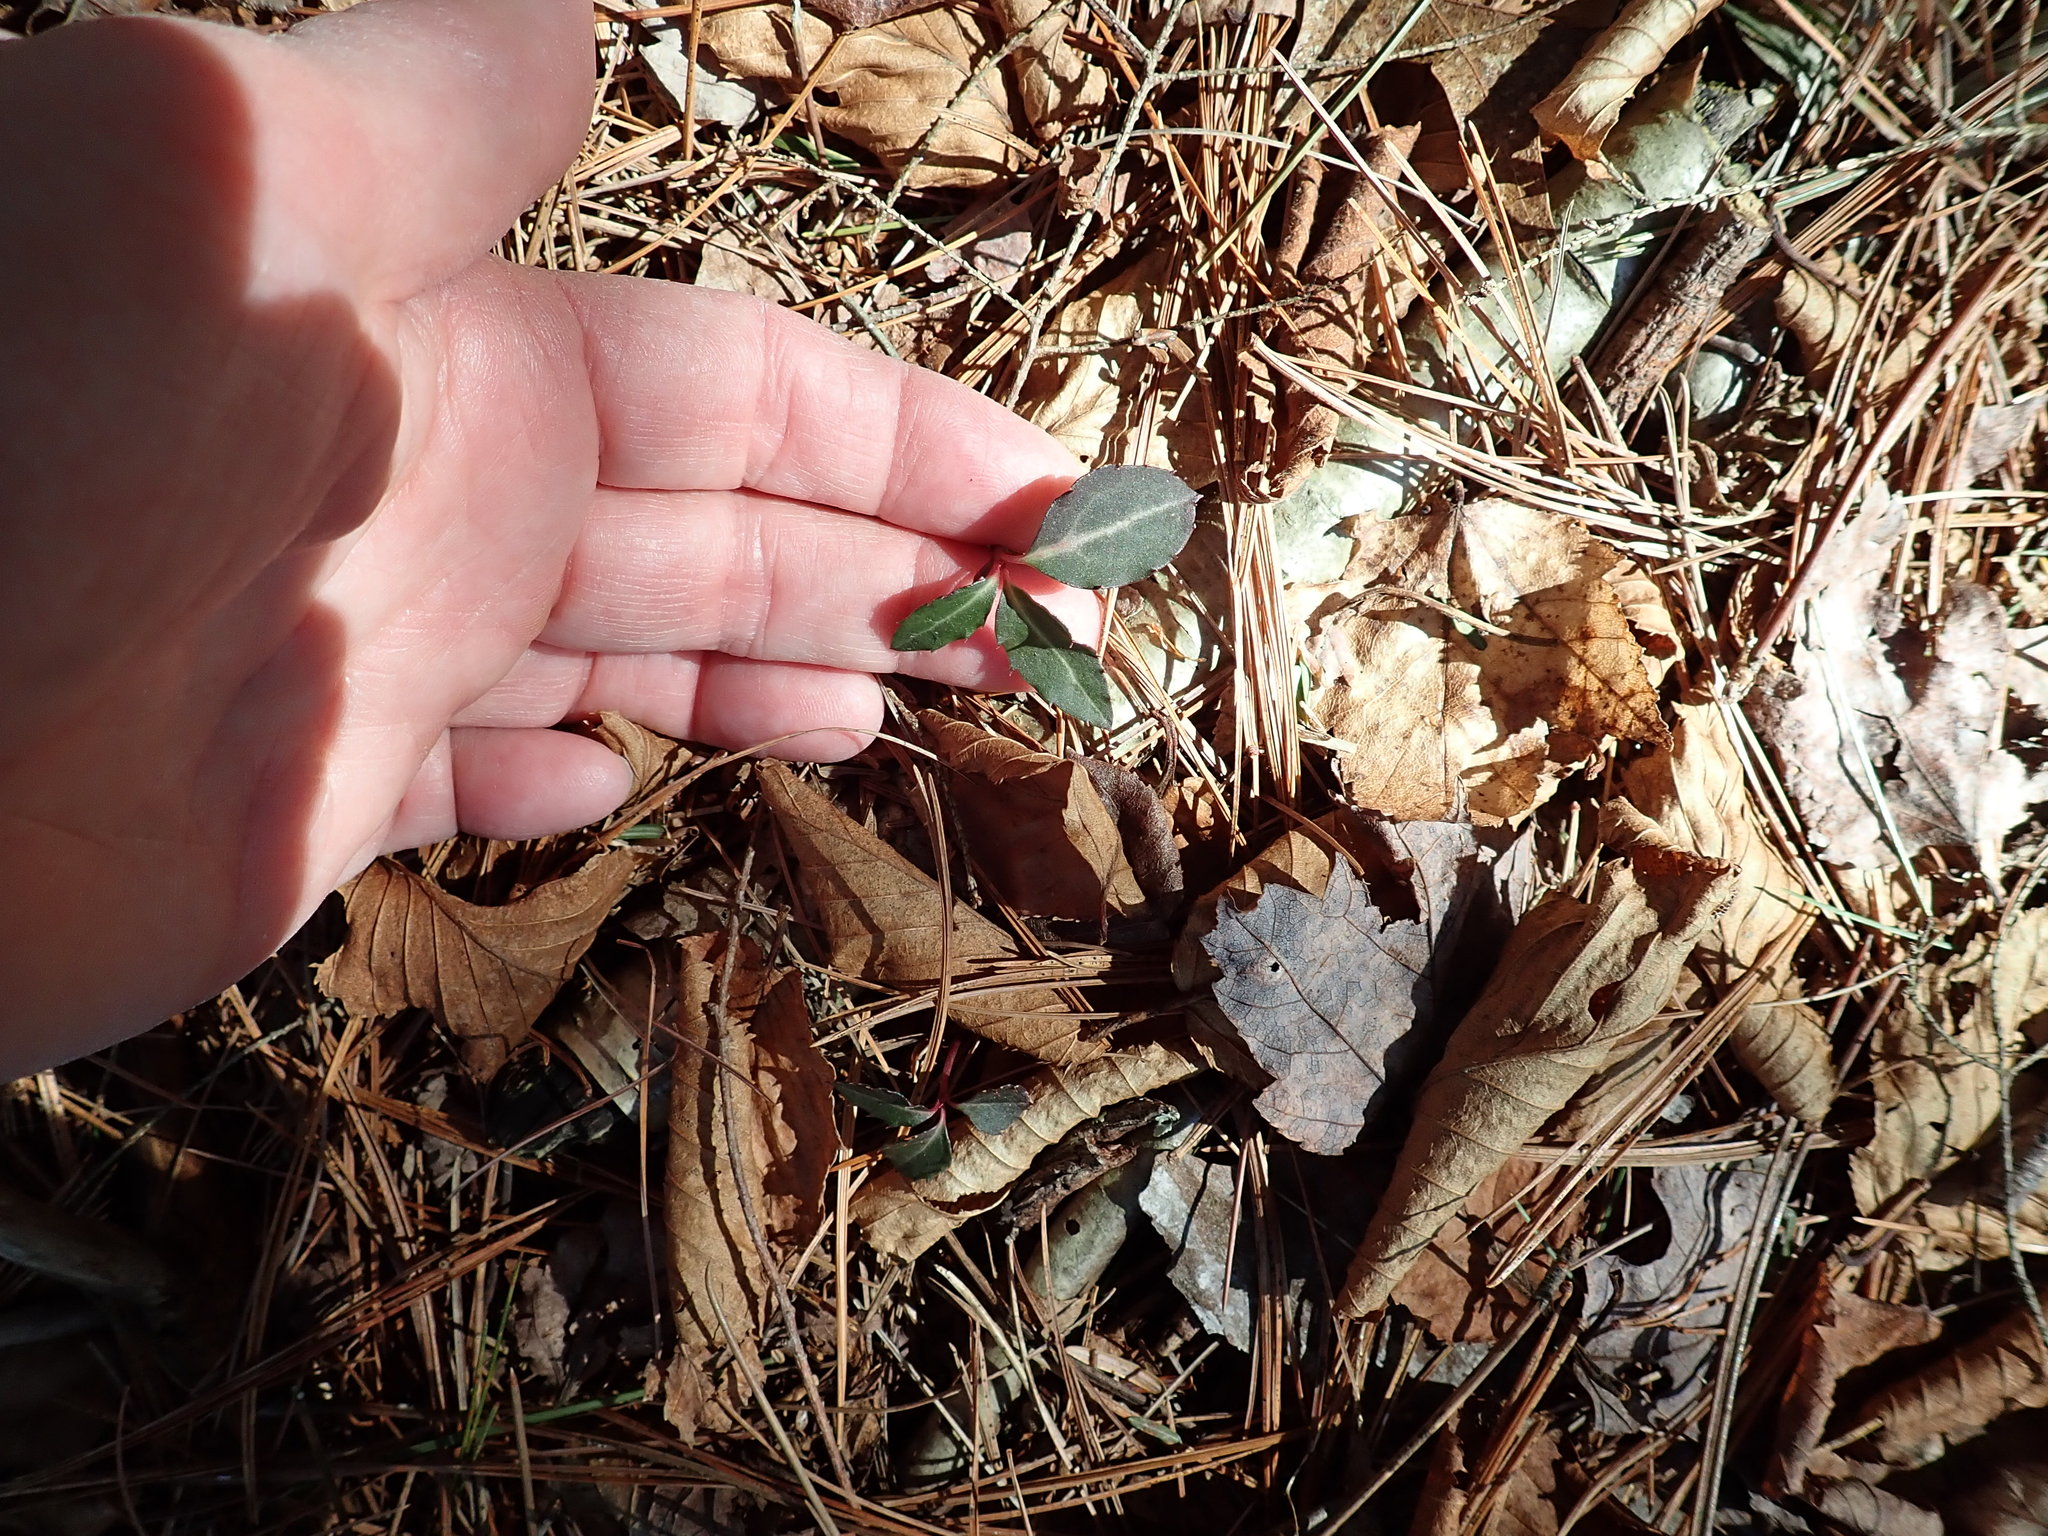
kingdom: Plantae
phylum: Tracheophyta
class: Magnoliopsida
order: Ericales
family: Ericaceae
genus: Chimaphila
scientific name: Chimaphila maculata
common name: Spotted pipsissewa
